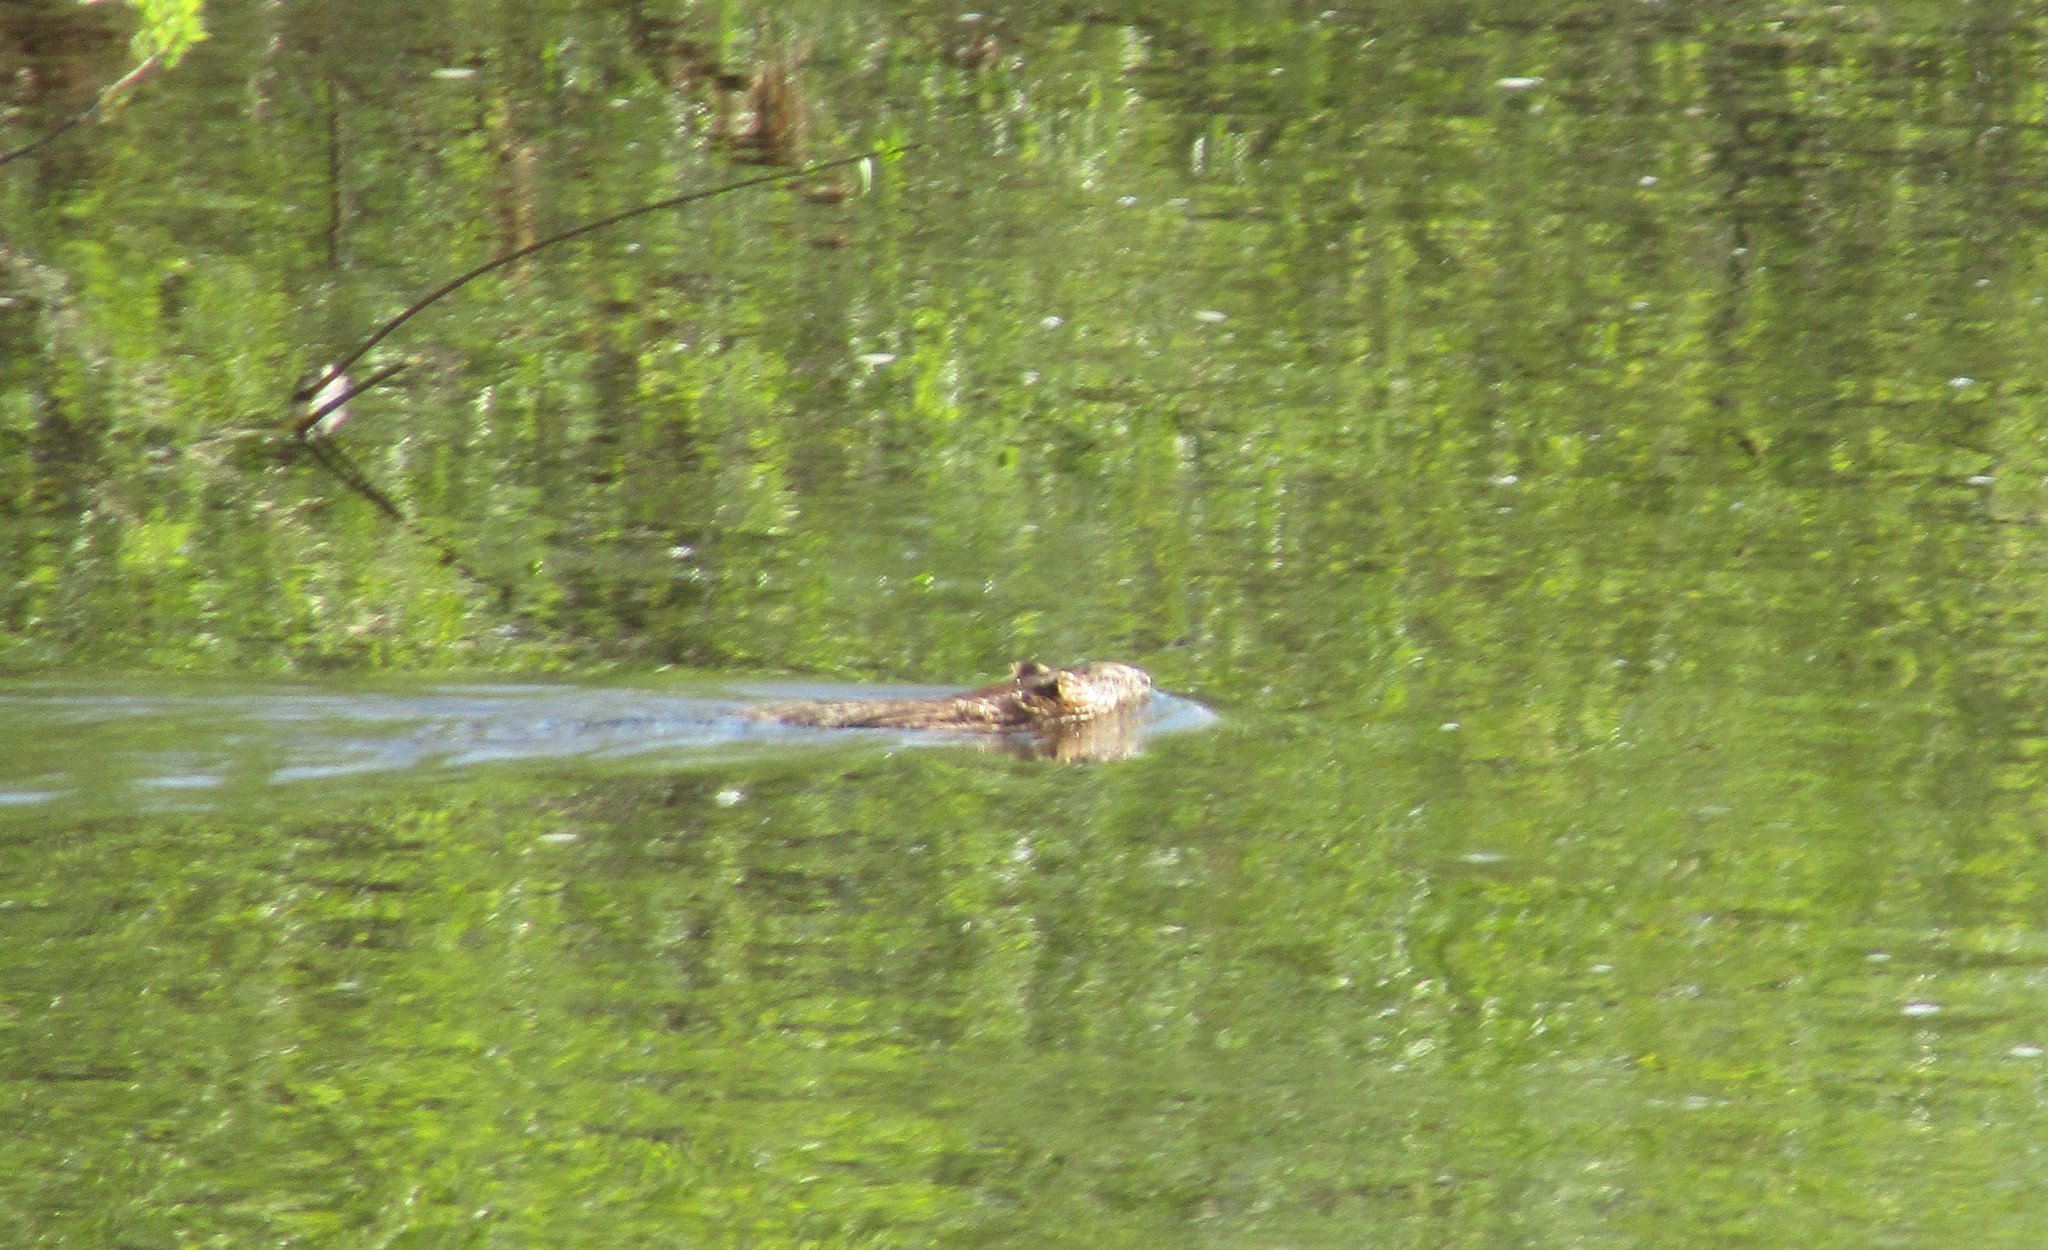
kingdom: Animalia
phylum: Chordata
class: Mammalia
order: Rodentia
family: Cricetidae
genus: Ondatra
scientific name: Ondatra zibethicus
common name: Muskrat
